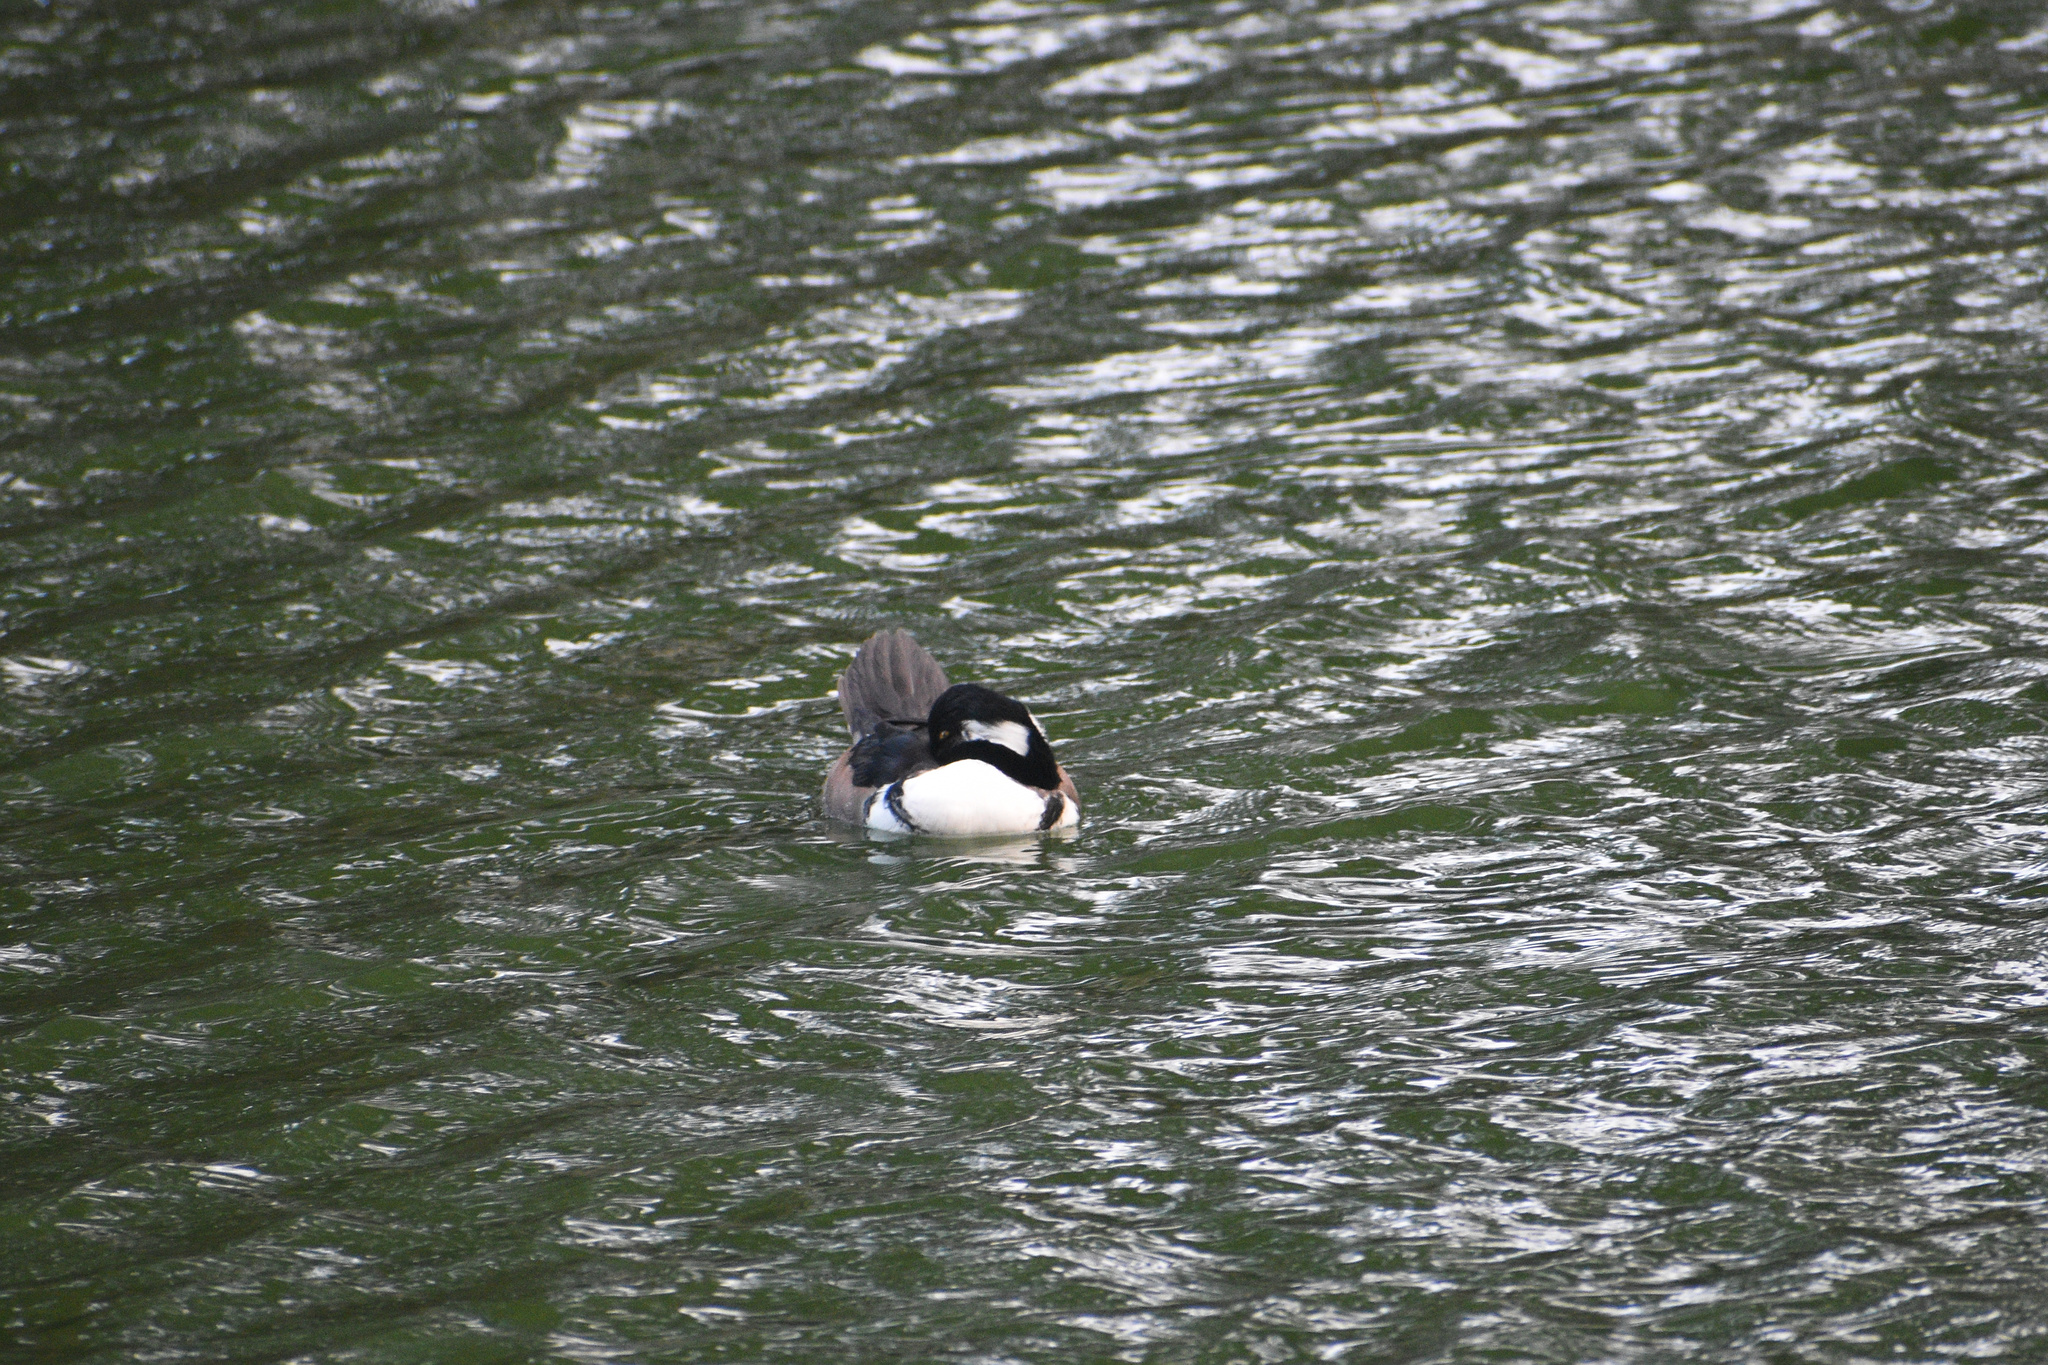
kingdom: Animalia
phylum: Chordata
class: Aves
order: Anseriformes
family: Anatidae
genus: Lophodytes
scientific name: Lophodytes cucullatus
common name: Hooded merganser
